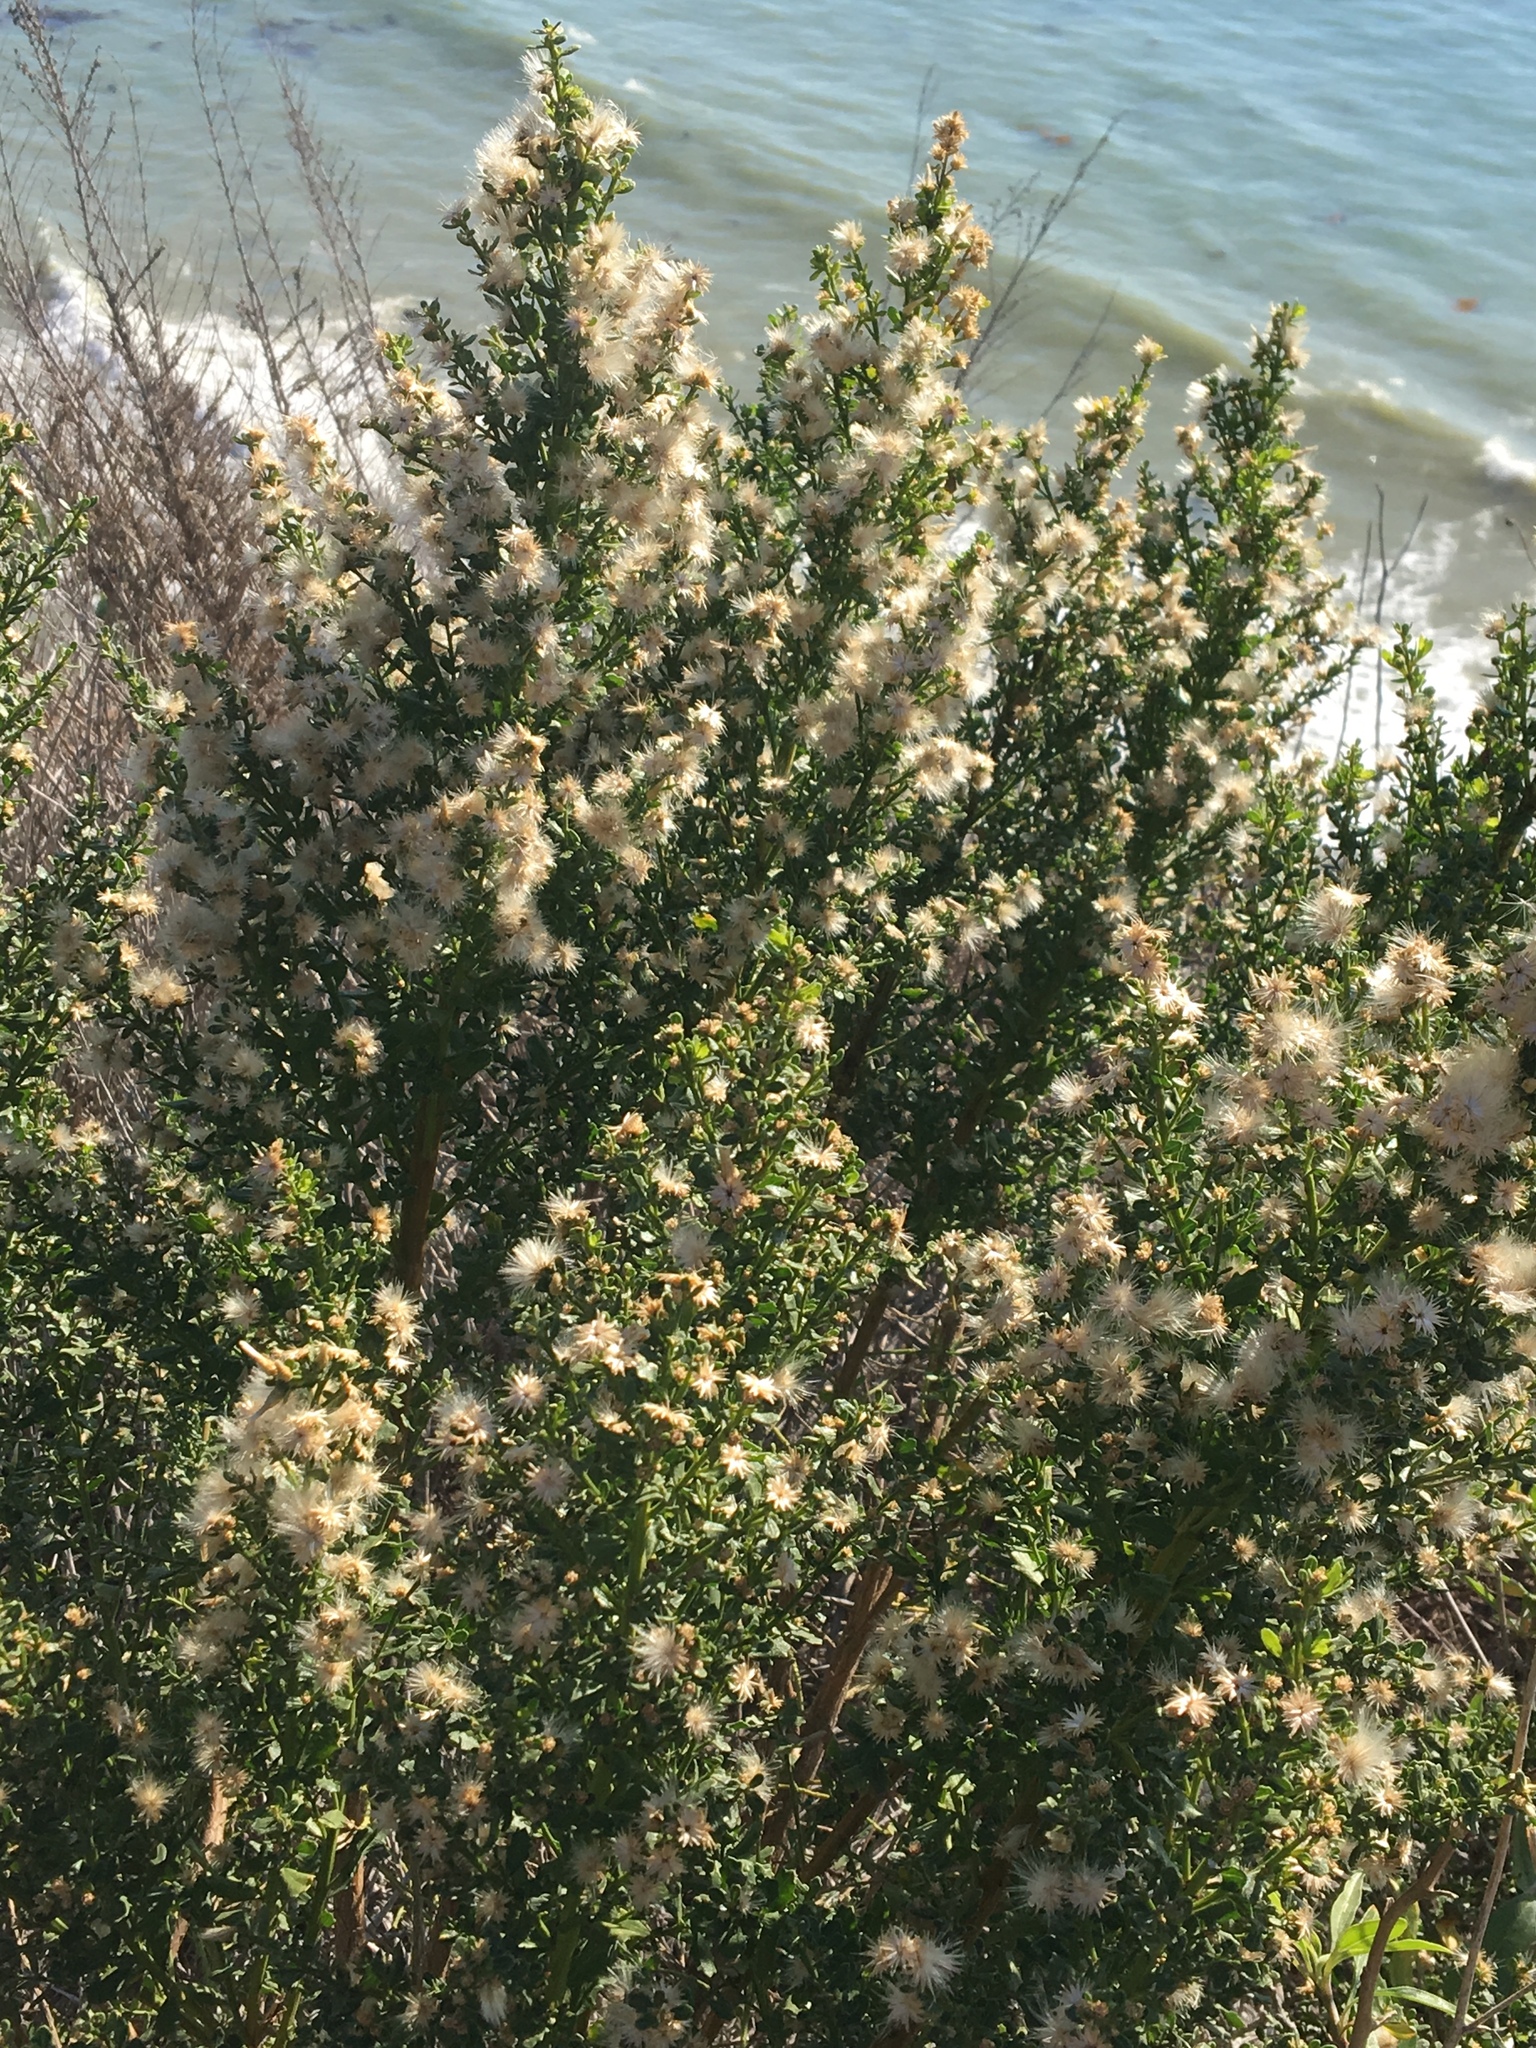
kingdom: Plantae
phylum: Tracheophyta
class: Magnoliopsida
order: Asterales
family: Asteraceae
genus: Baccharis
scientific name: Baccharis pilularis
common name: Coyotebrush
